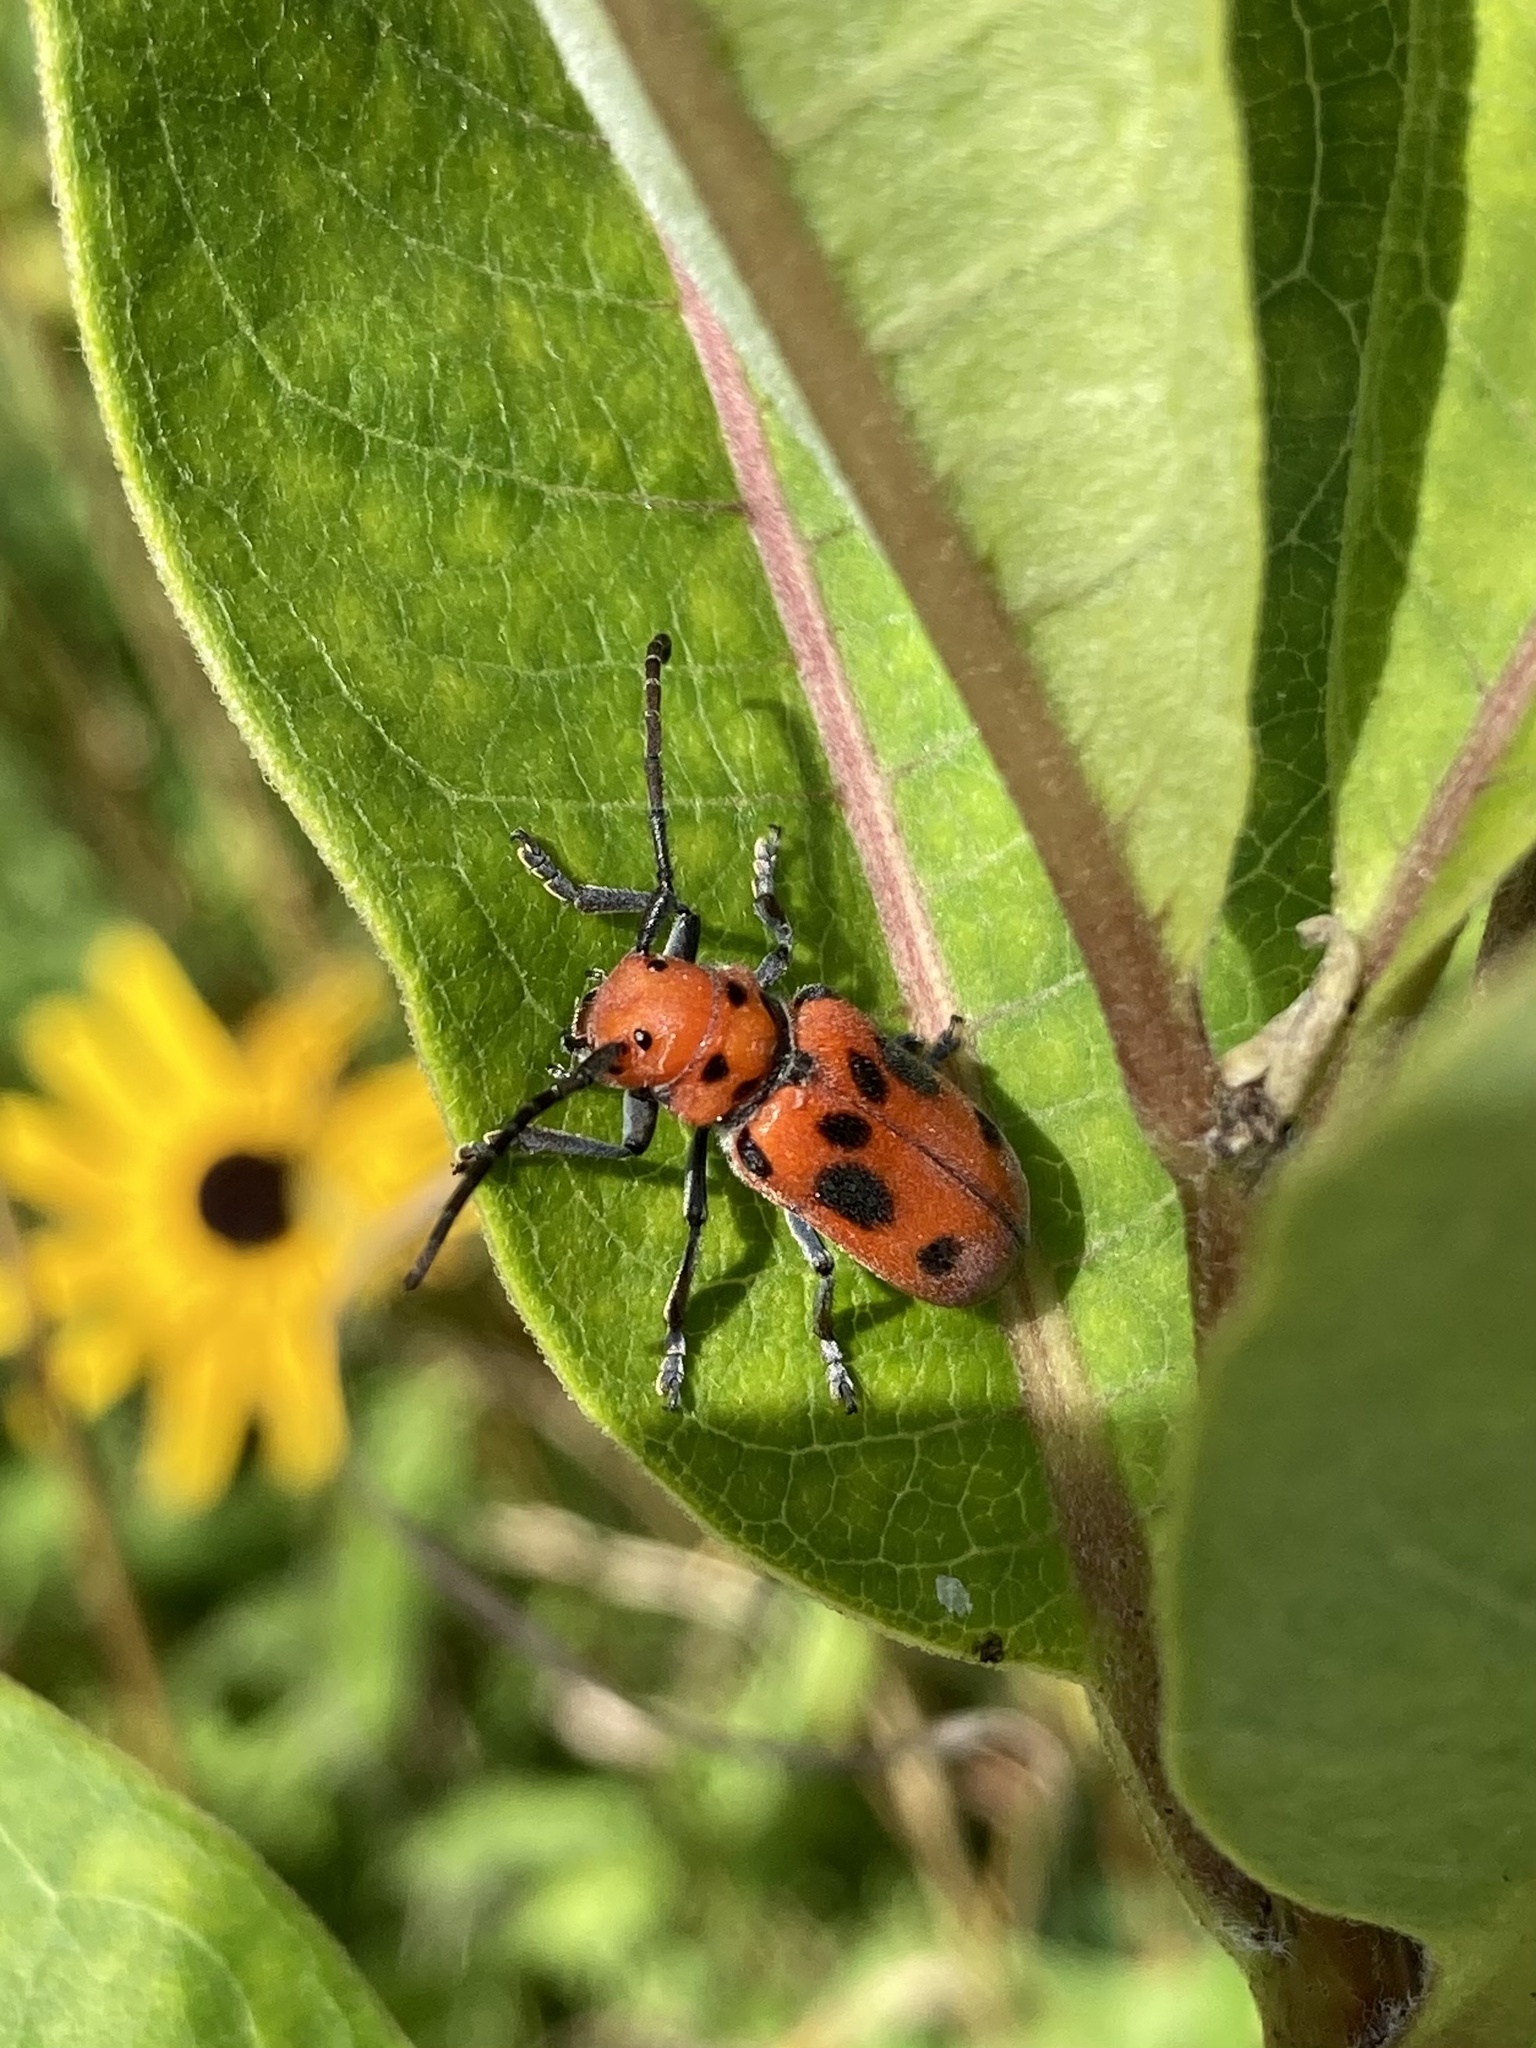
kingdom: Animalia
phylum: Arthropoda
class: Insecta
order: Coleoptera
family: Cerambycidae
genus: Tetraopes
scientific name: Tetraopes tetrophthalmus
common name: Red milkweed beetle
